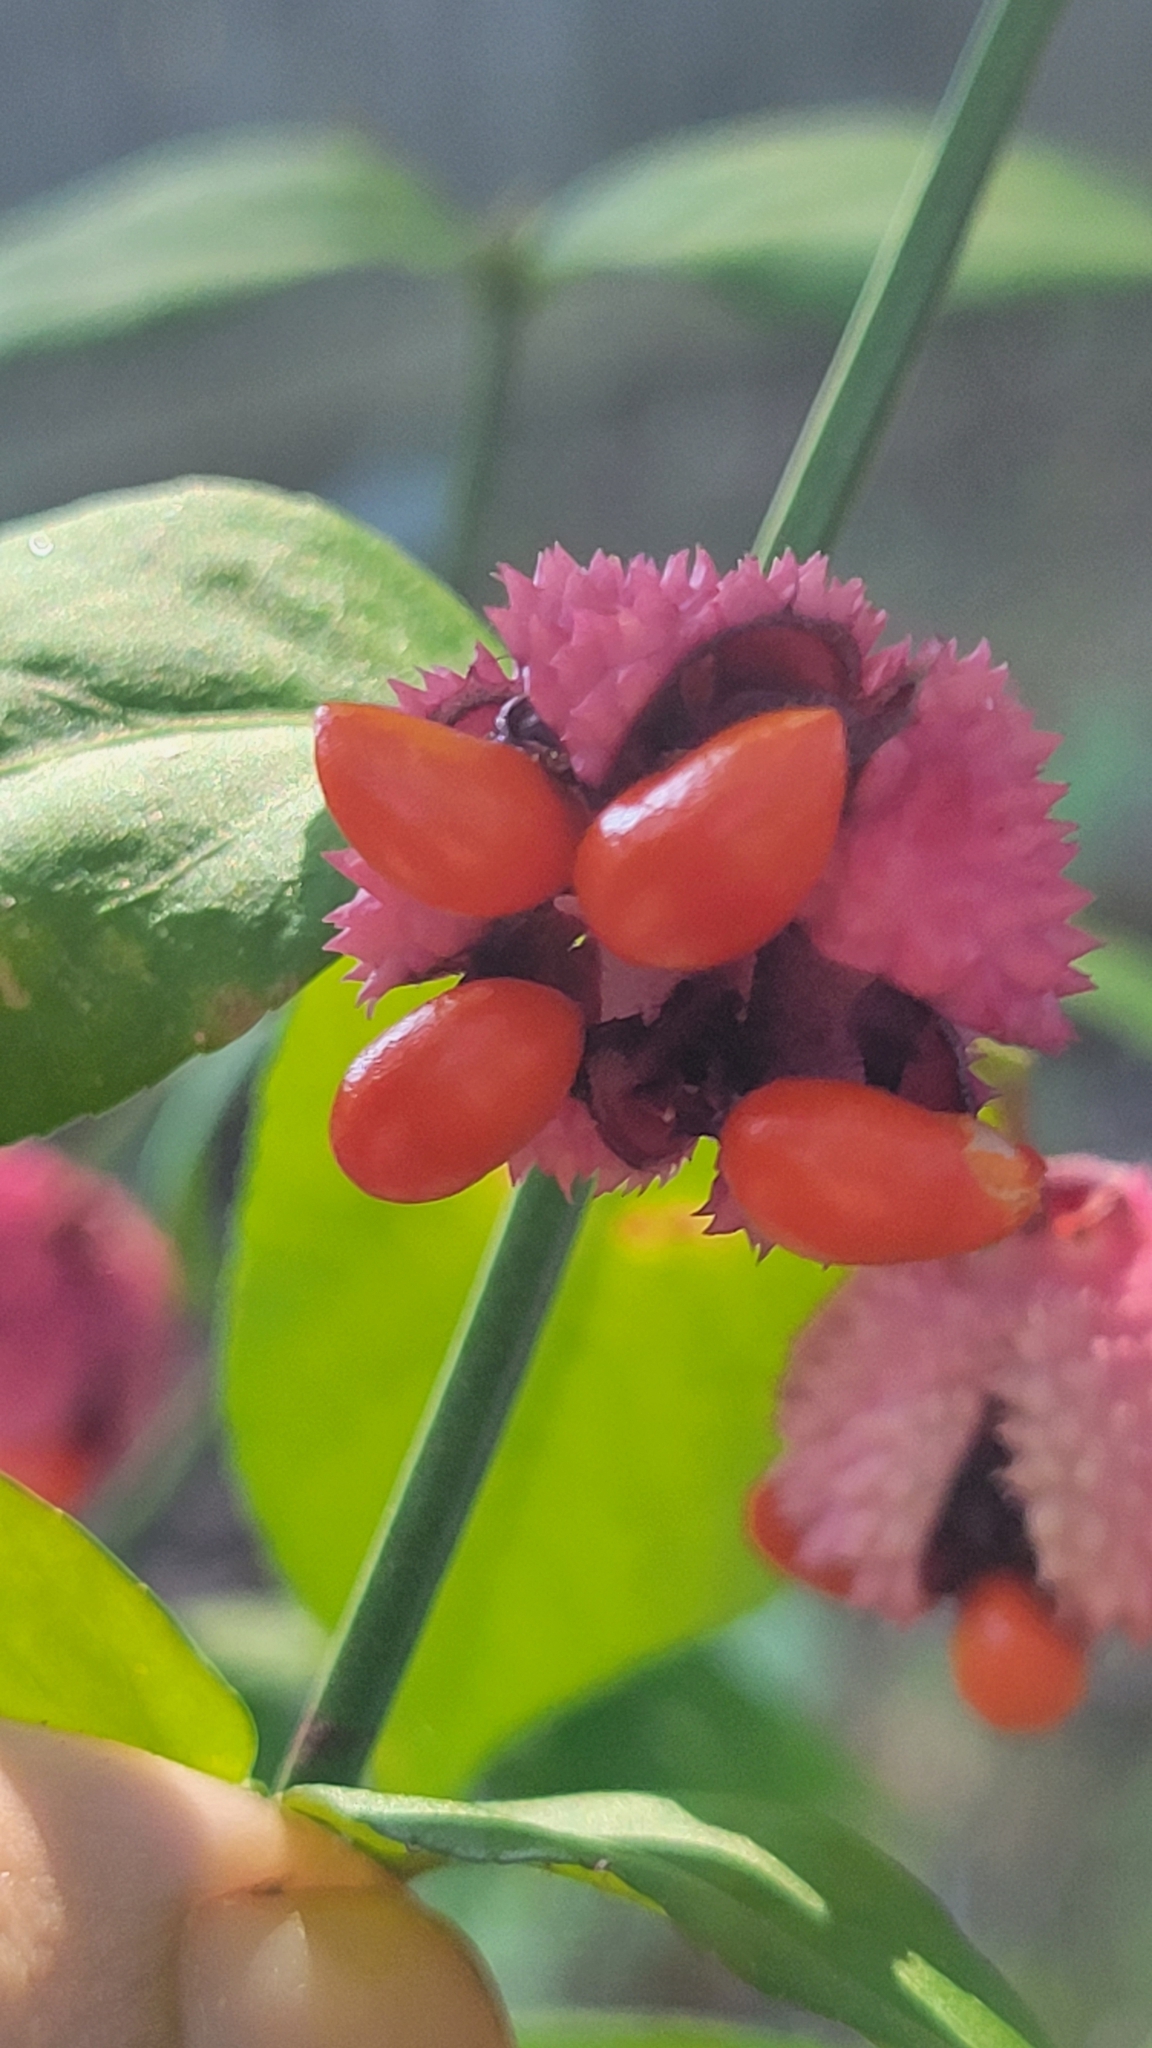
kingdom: Plantae
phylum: Tracheophyta
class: Magnoliopsida
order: Celastrales
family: Celastraceae
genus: Euonymus
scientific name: Euonymus americanus
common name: Bursting-heart
